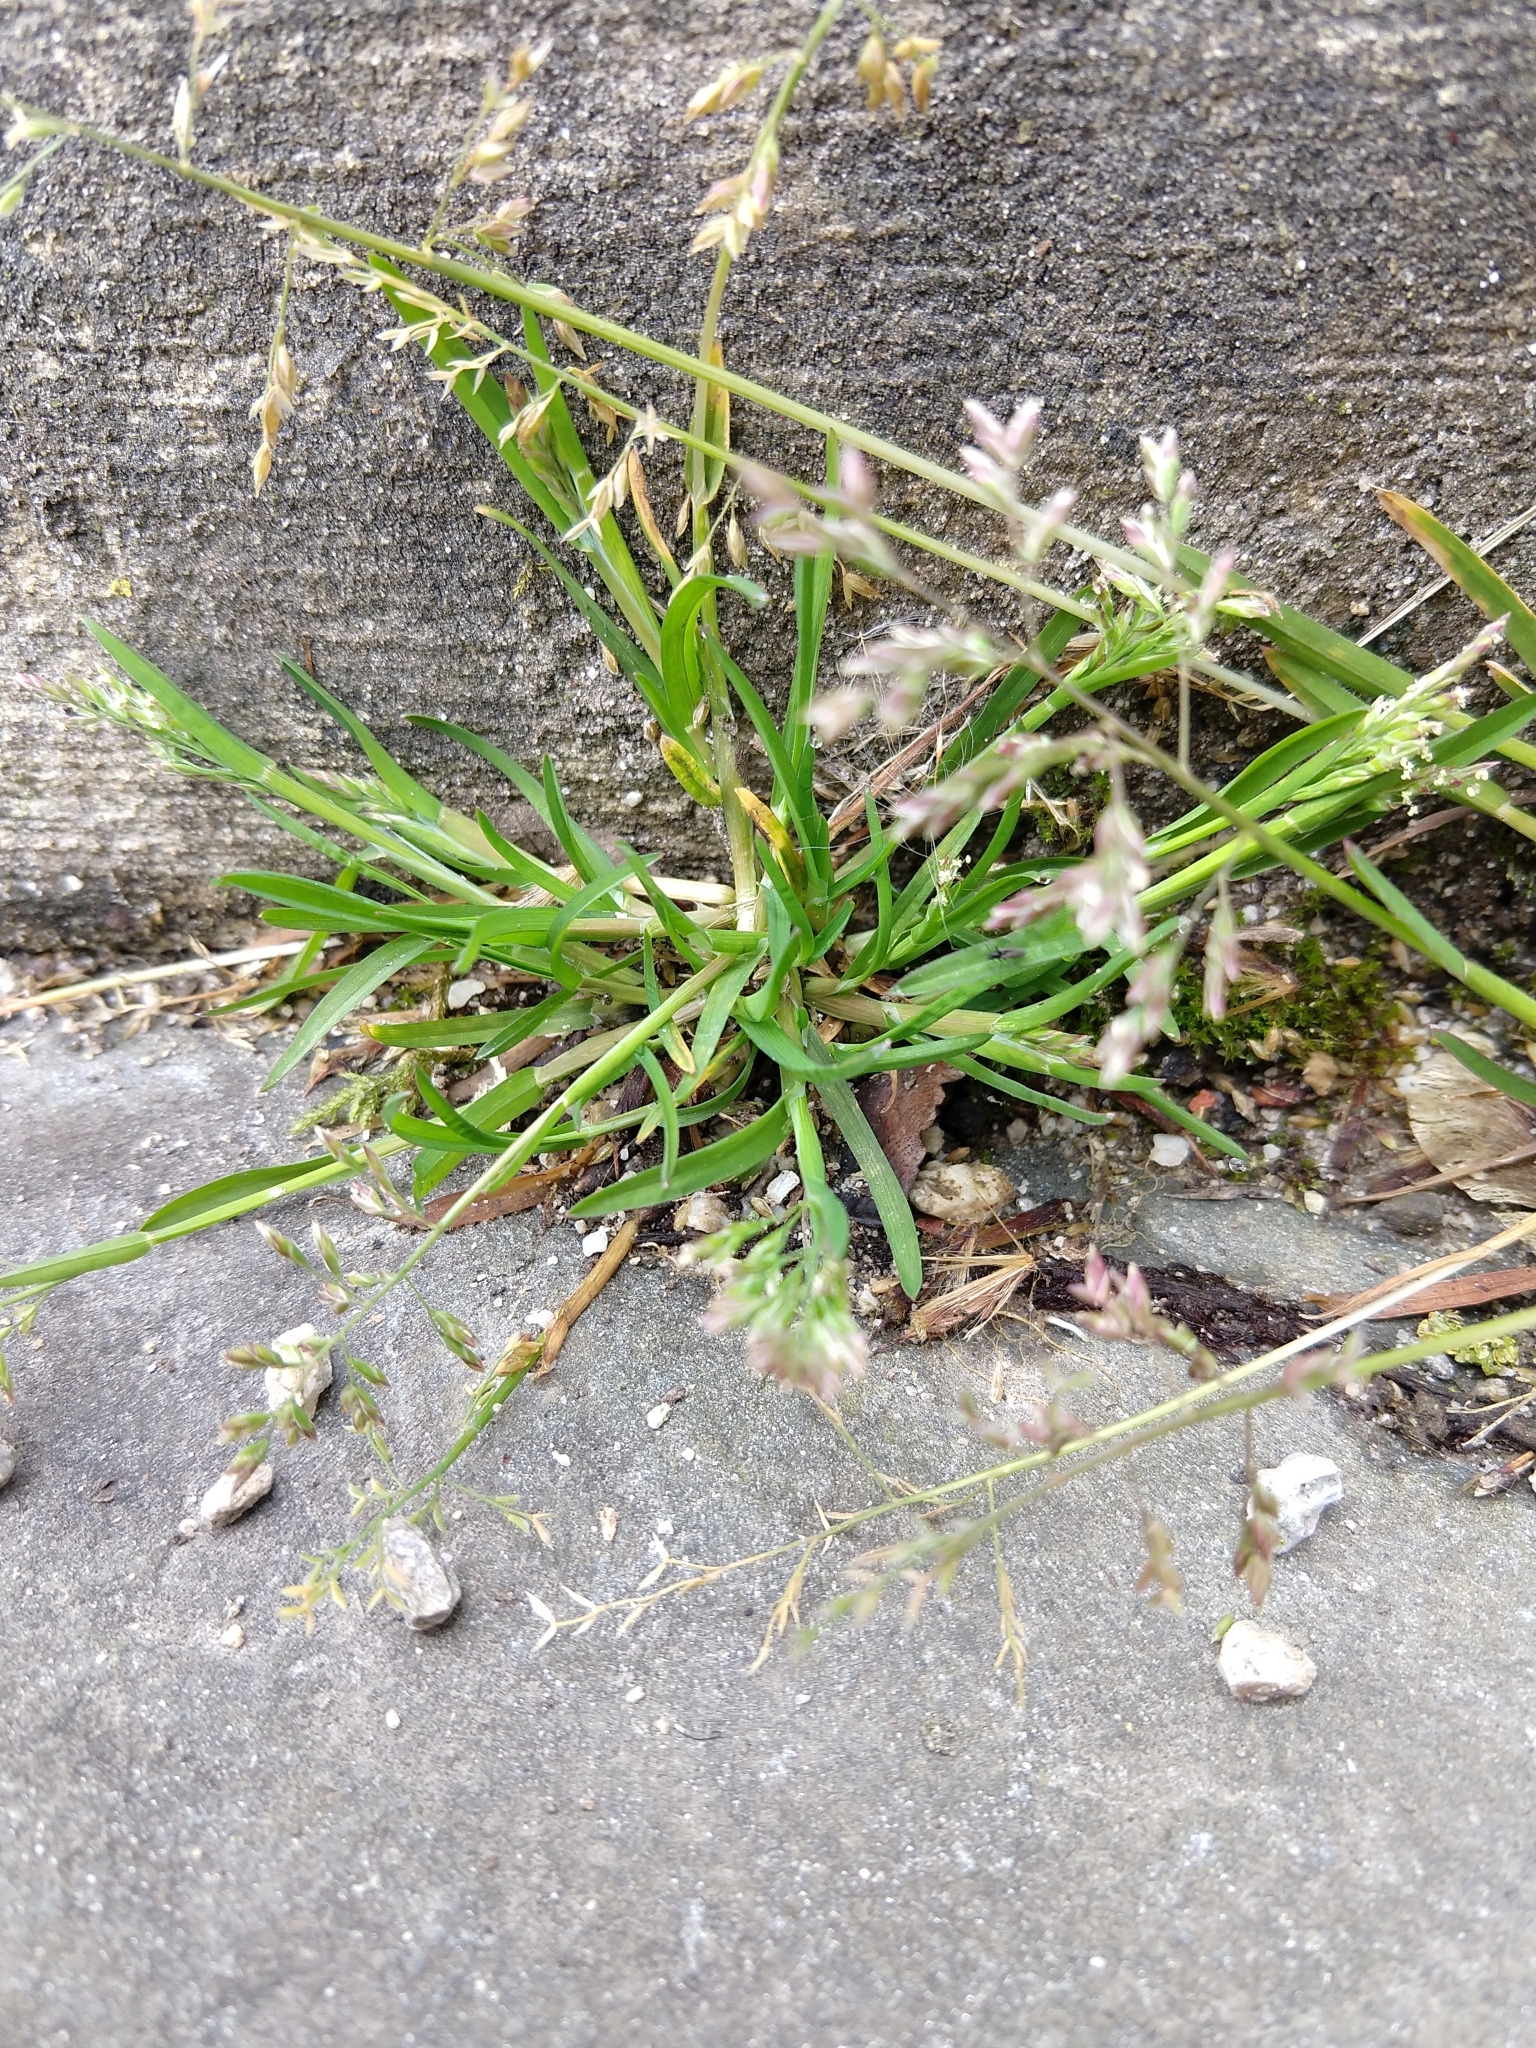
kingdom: Plantae
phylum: Tracheophyta
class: Liliopsida
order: Poales
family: Poaceae
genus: Poa
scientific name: Poa annua
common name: Annual bluegrass
